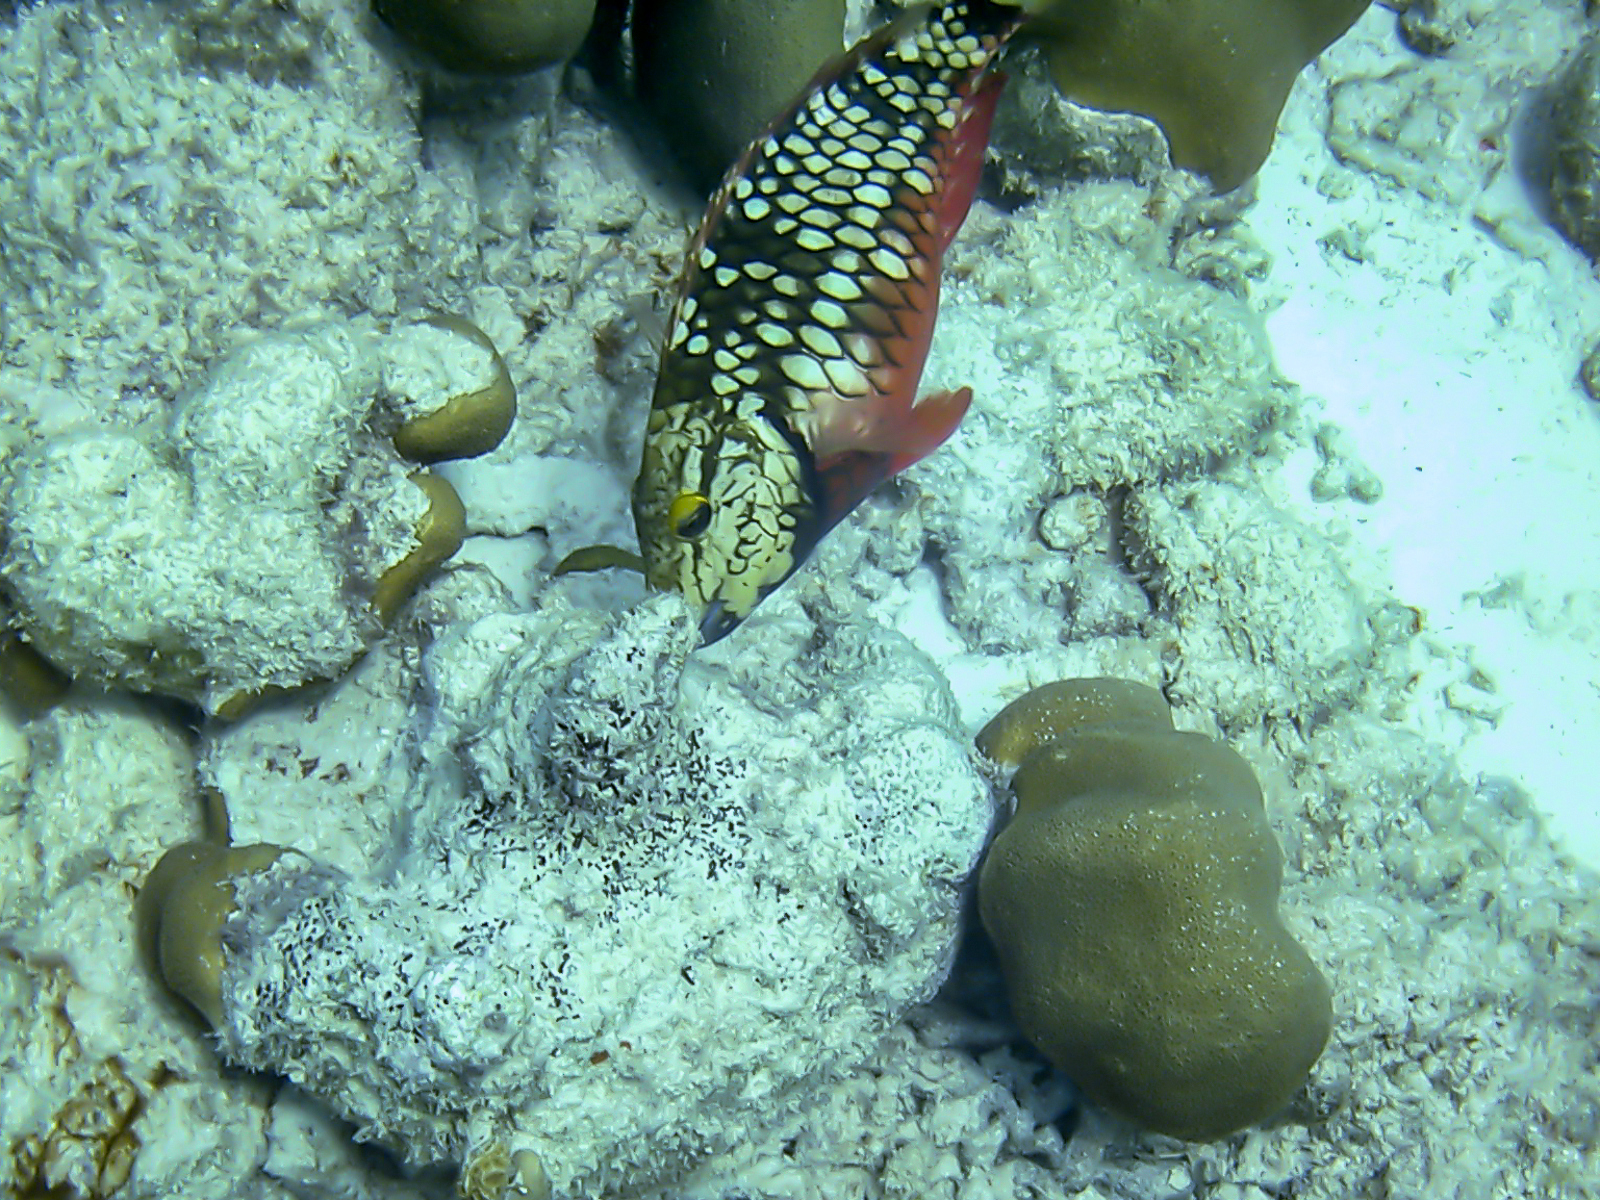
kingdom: Animalia
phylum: Chordata
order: Perciformes
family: Scaridae
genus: Sparisoma
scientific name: Sparisoma viride
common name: Stoplight parrotfish
